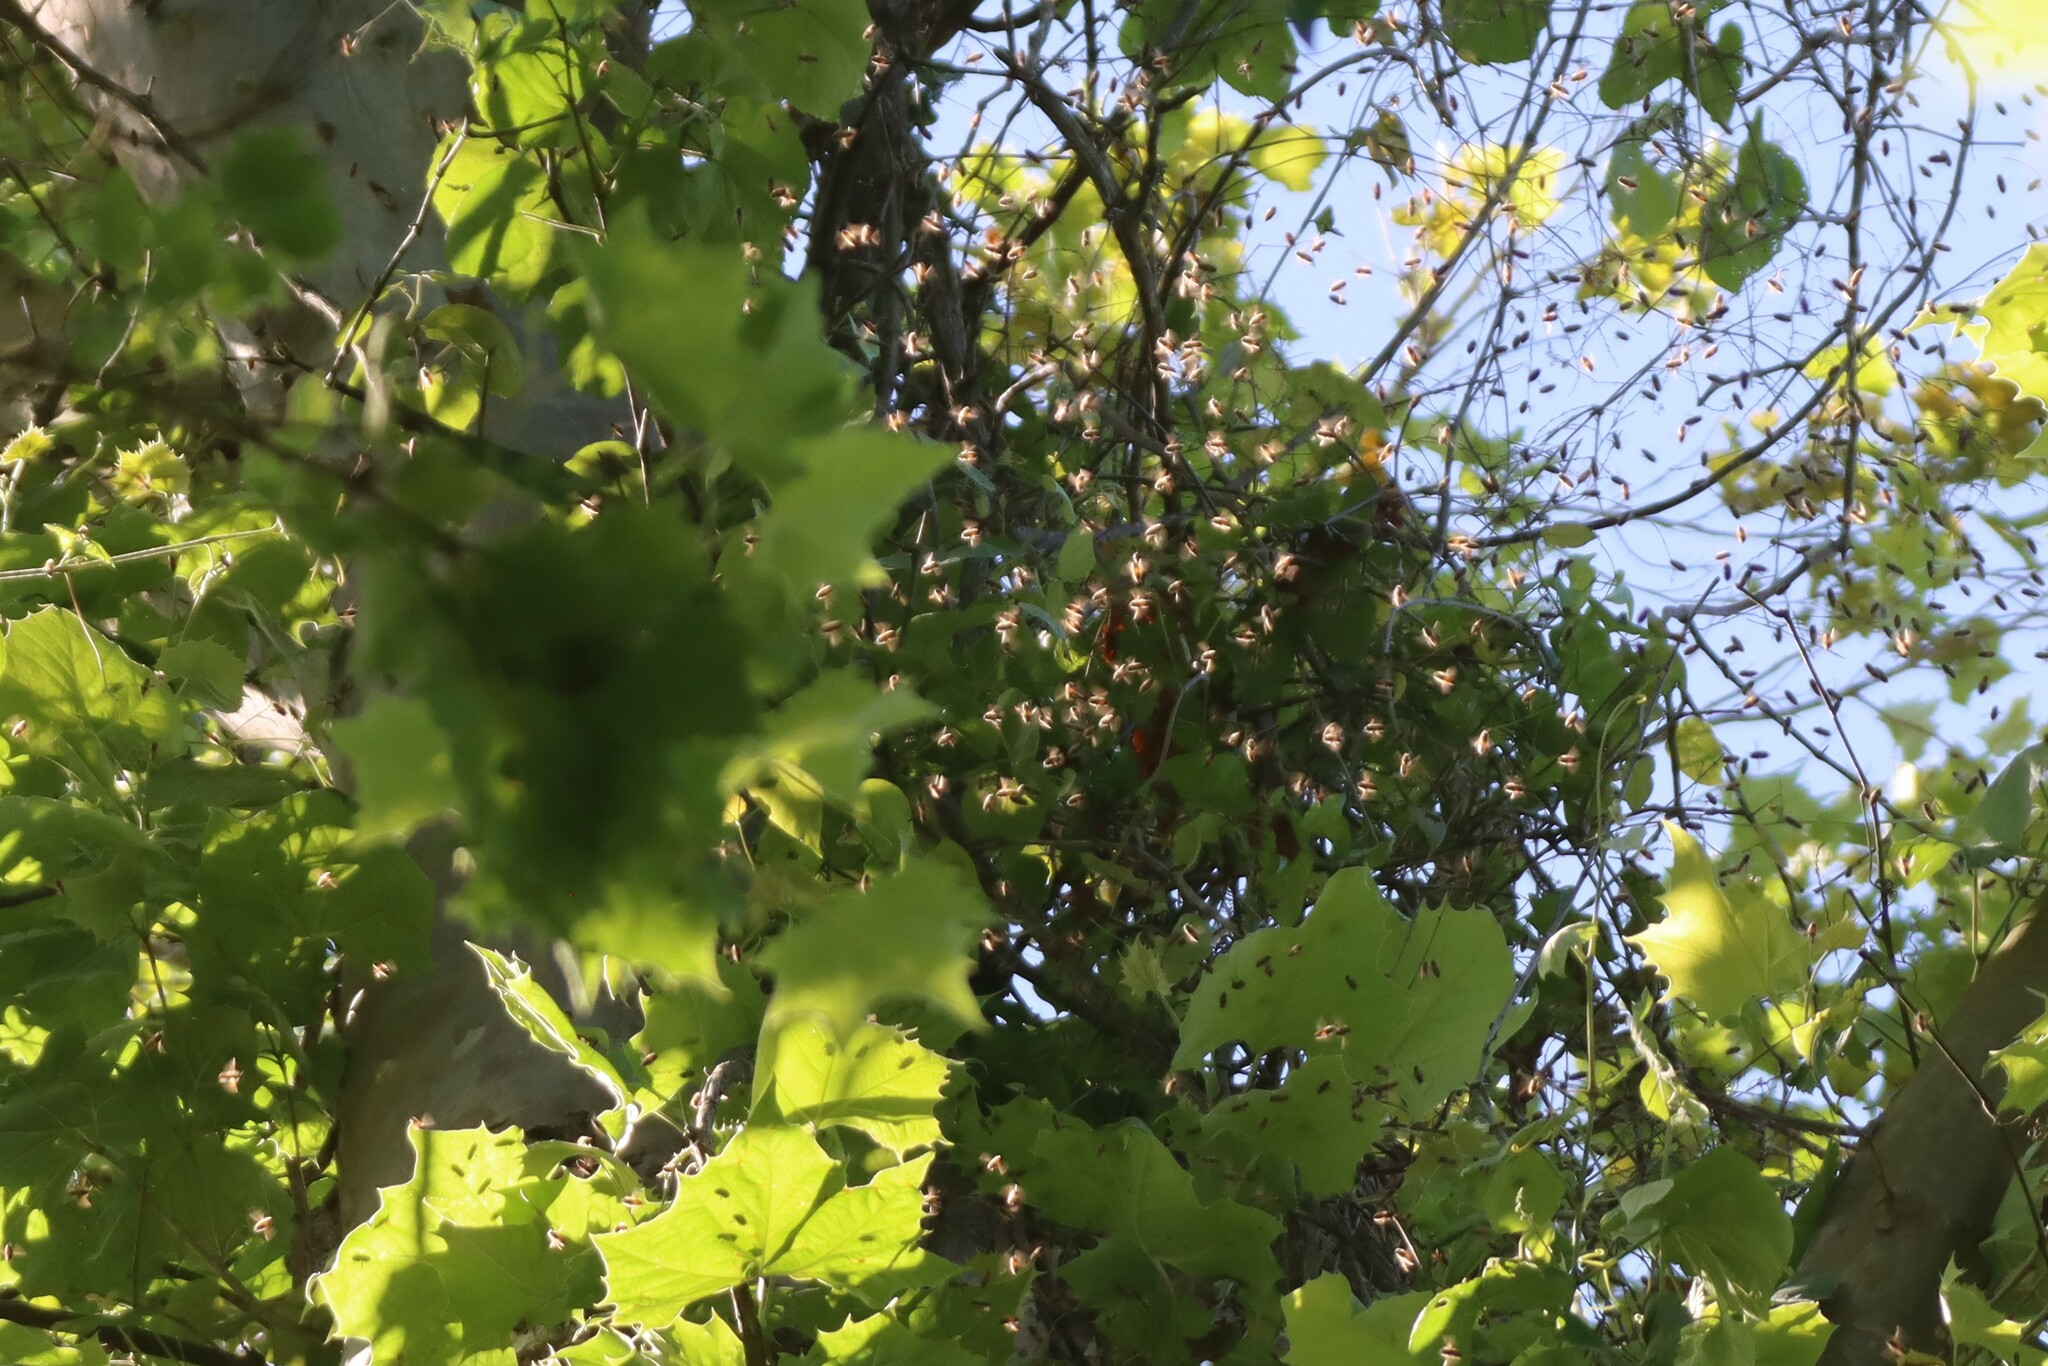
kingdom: Animalia
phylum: Arthropoda
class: Insecta
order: Hymenoptera
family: Apidae
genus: Apis
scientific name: Apis mellifera
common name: Honey bee
